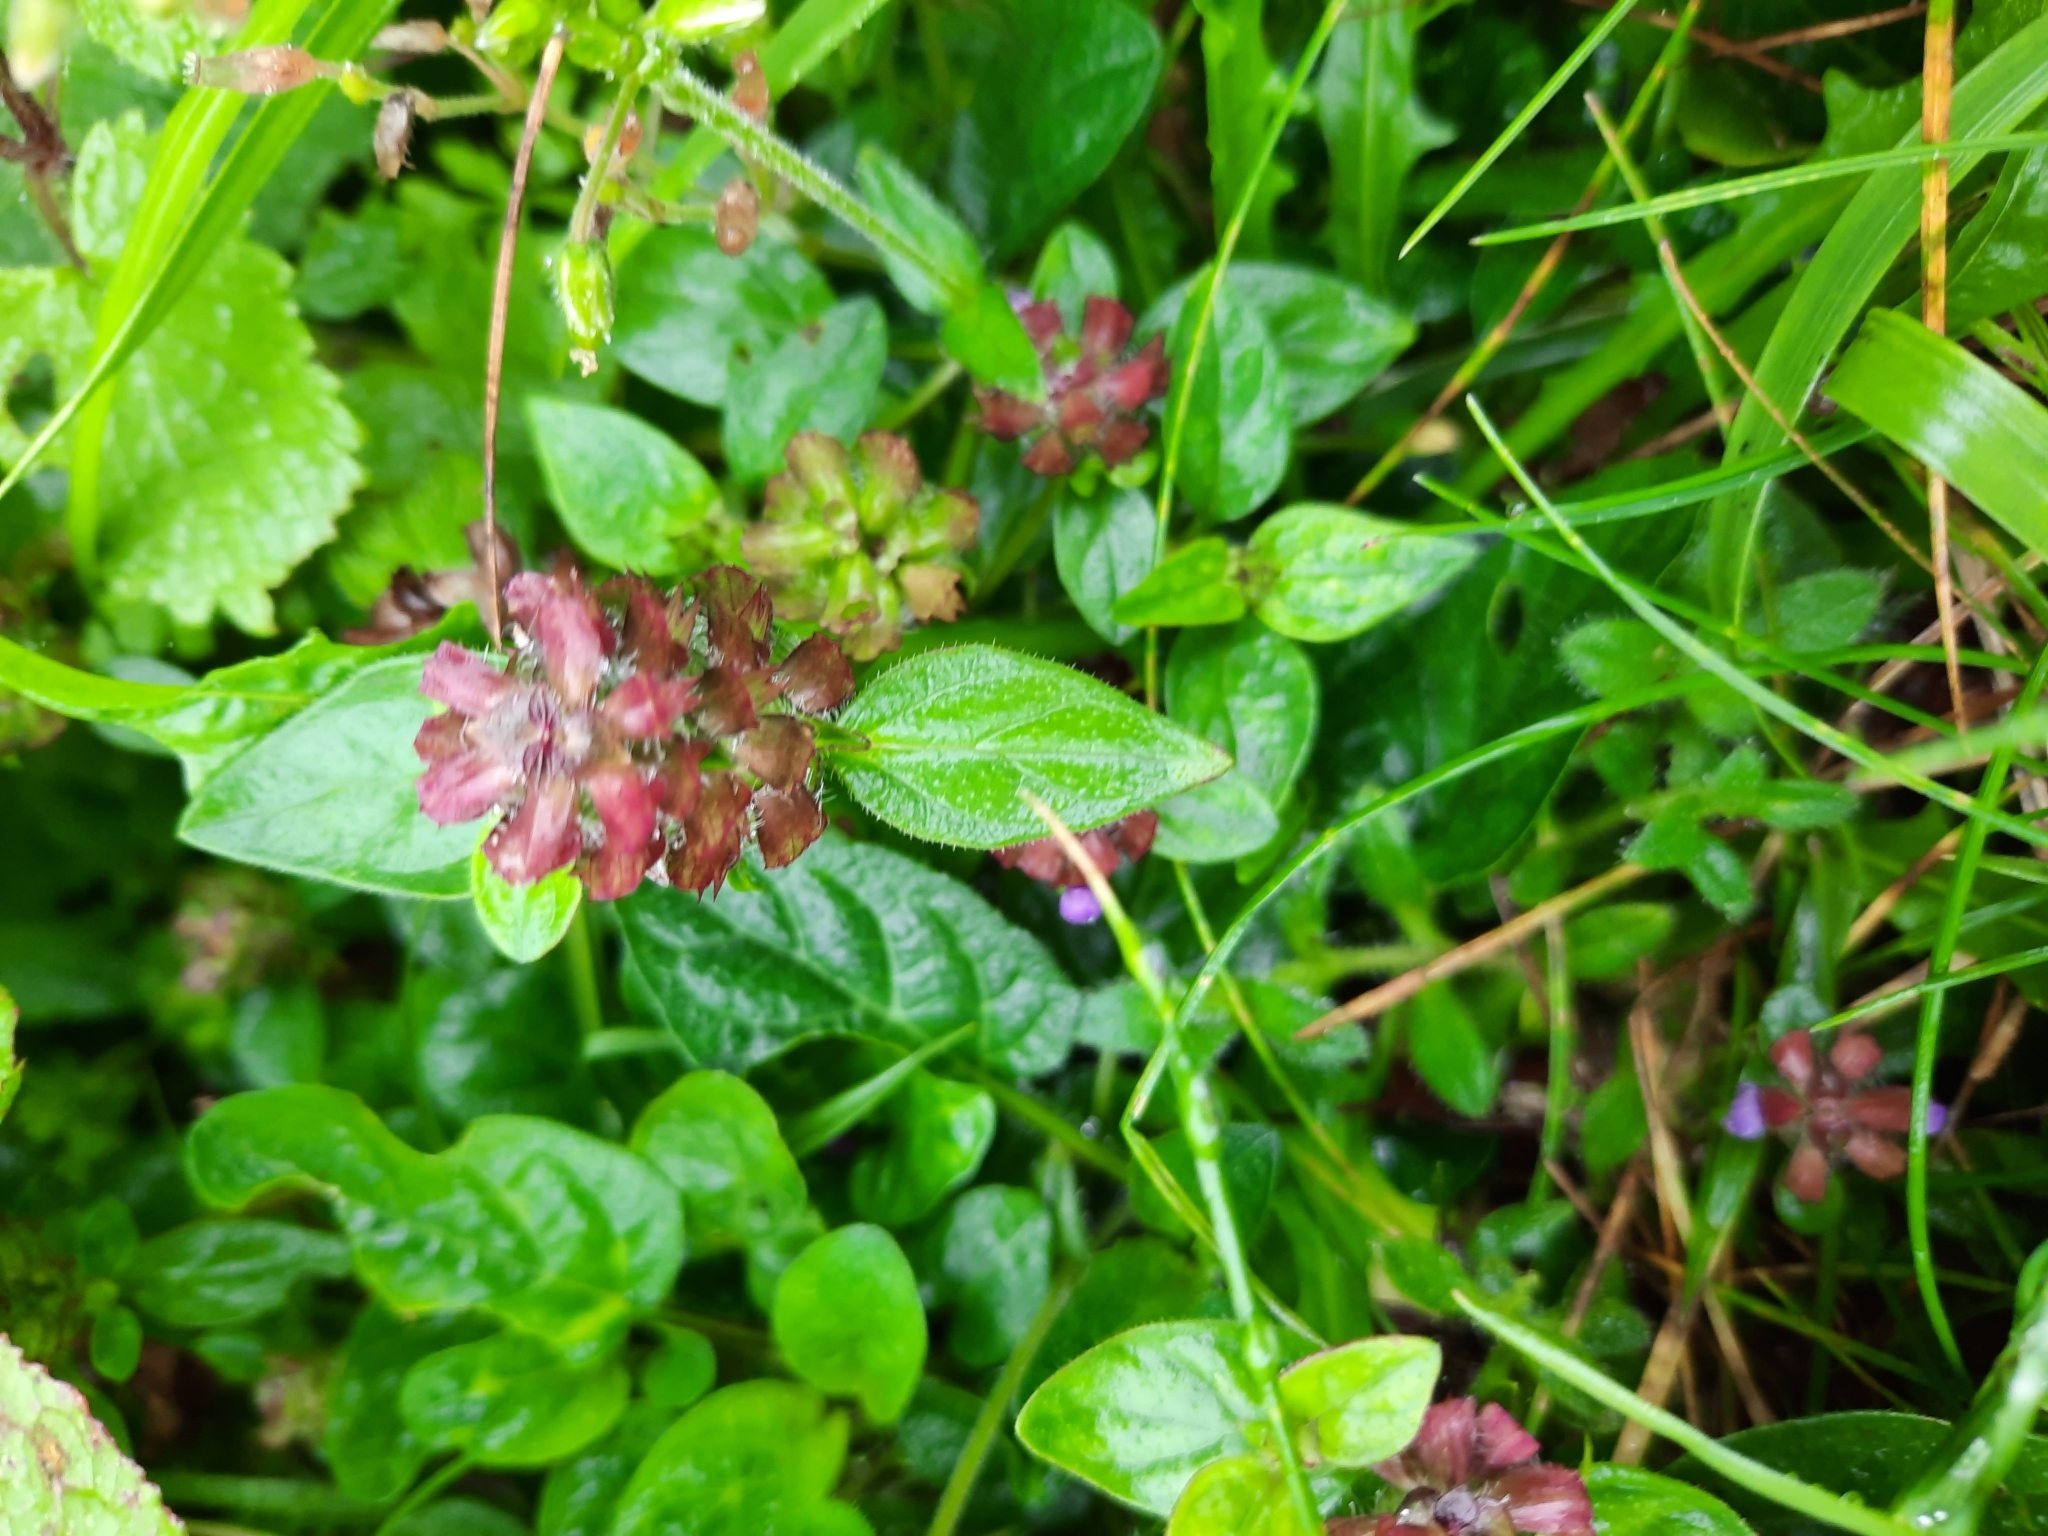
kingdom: Plantae
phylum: Tracheophyta
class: Magnoliopsida
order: Lamiales
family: Lamiaceae
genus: Prunella
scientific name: Prunella vulgaris
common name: Heal-all
